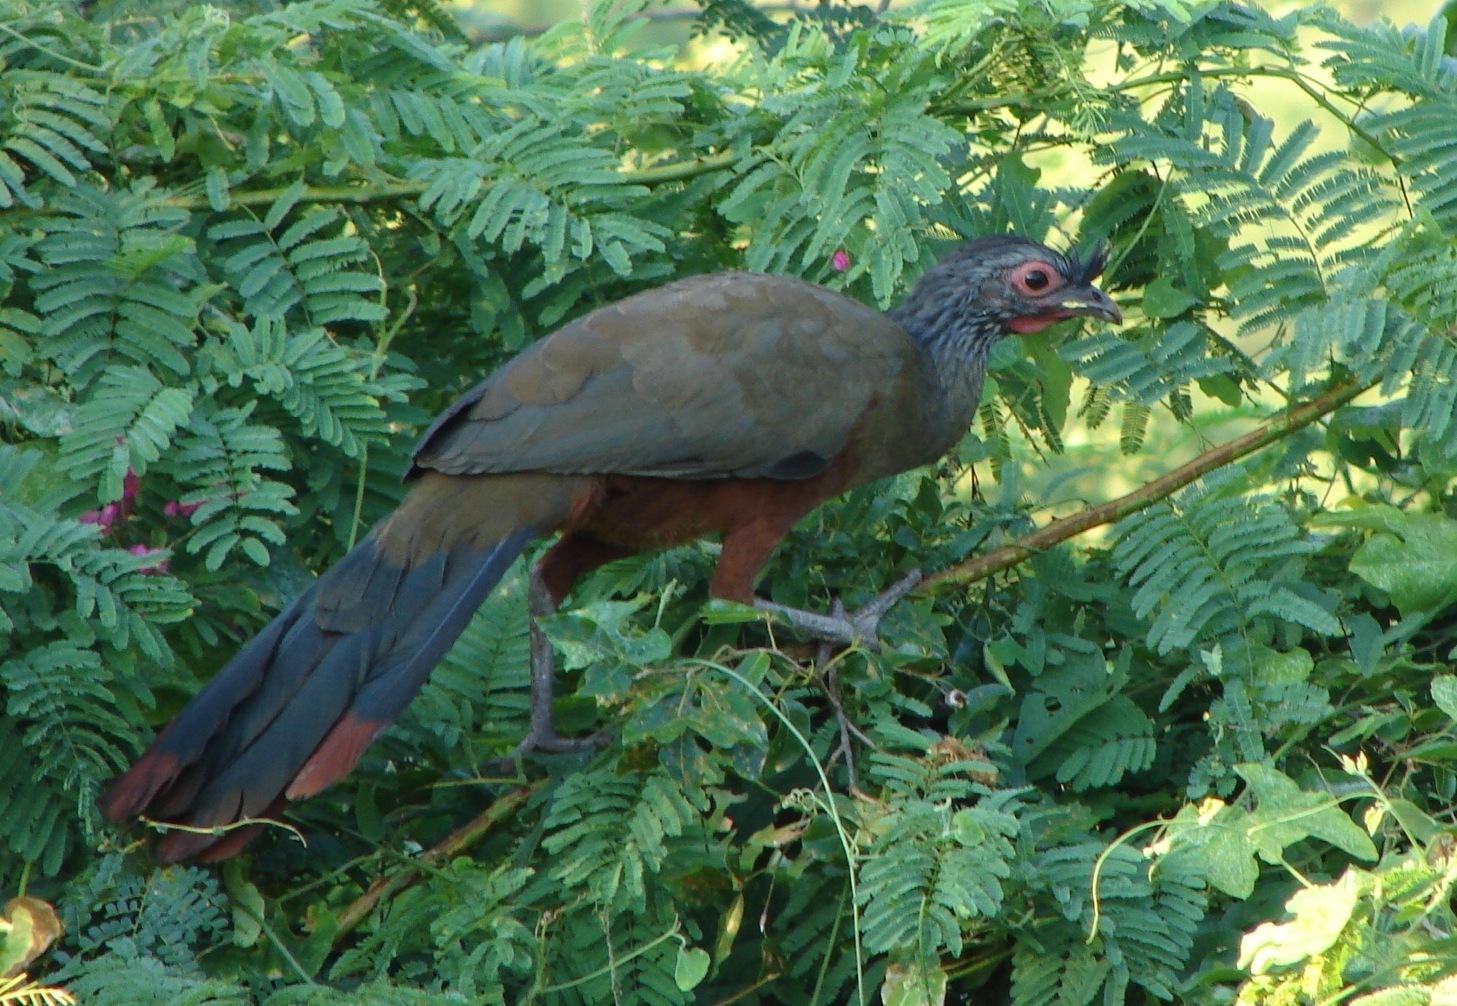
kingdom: Animalia
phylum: Chordata
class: Aves
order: Galliformes
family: Cracidae
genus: Ortalis
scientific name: Ortalis wagleri
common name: Rufous-bellied chachalaca
